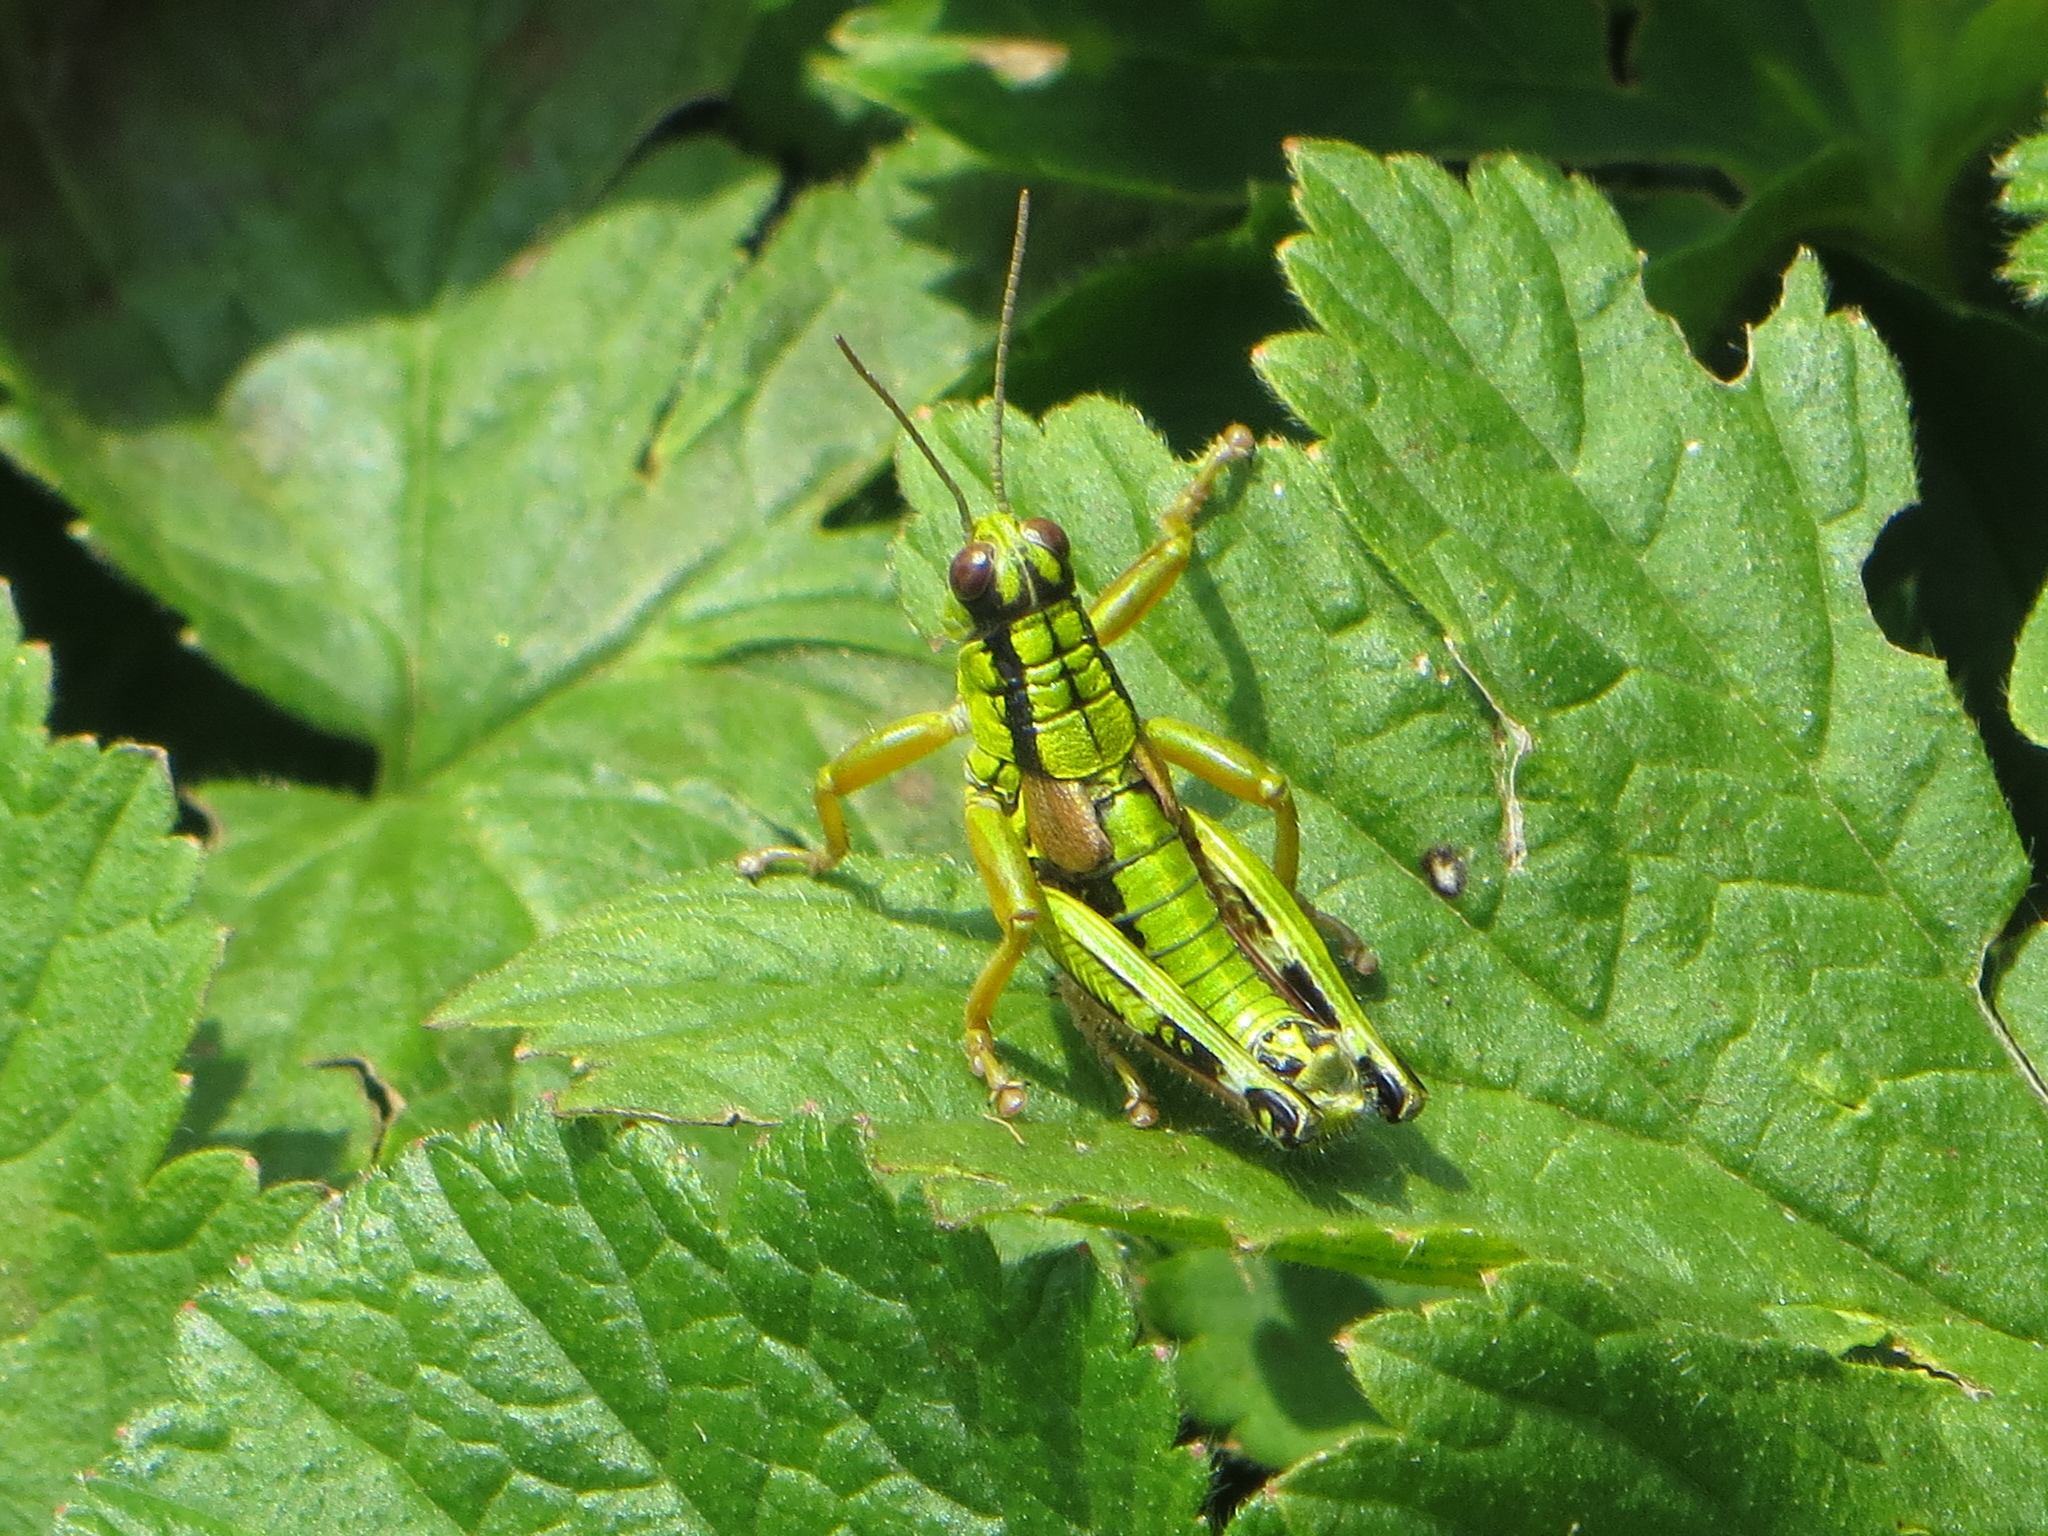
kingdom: Animalia
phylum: Arthropoda
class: Insecta
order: Orthoptera
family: Acrididae
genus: Miramella
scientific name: Miramella alpina
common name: Green mountain grasshopper
